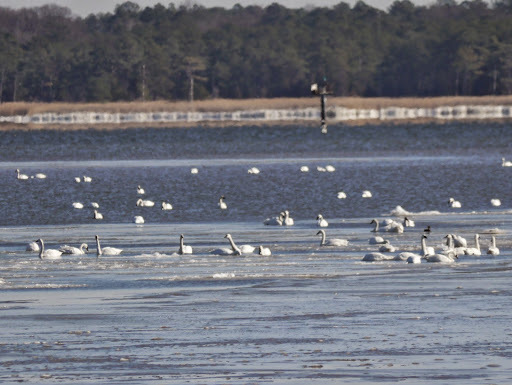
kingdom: Animalia
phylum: Chordata
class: Aves
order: Anseriformes
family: Anatidae
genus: Cygnus
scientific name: Cygnus columbianus
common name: Tundra swan
